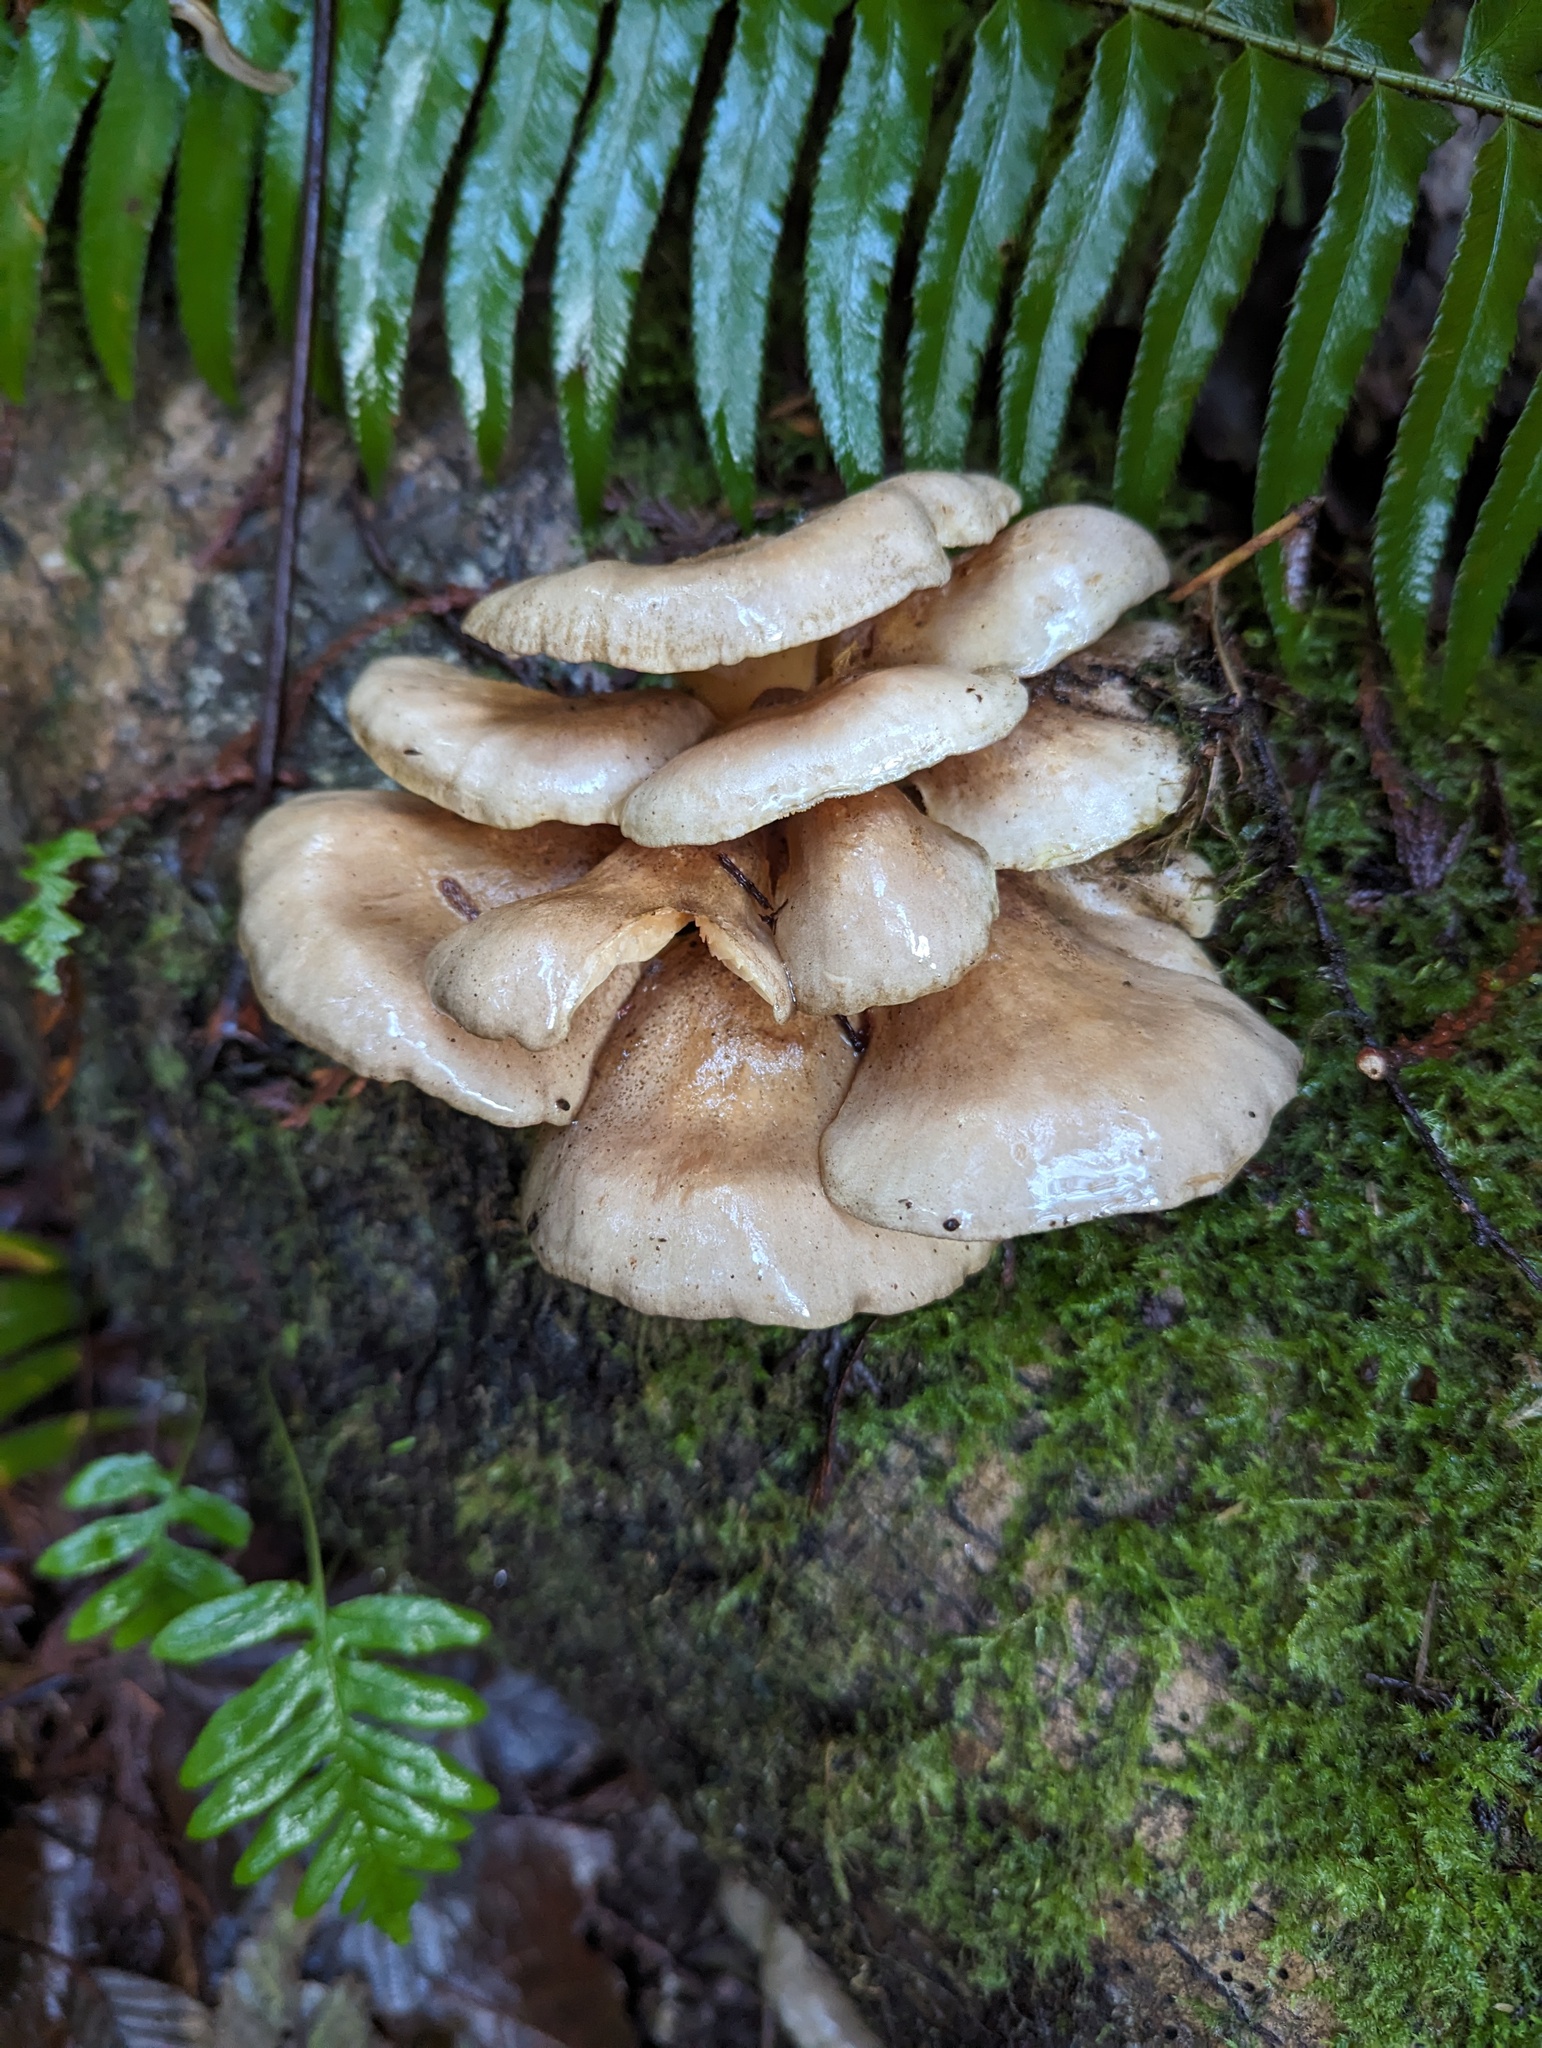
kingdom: Fungi
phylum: Basidiomycota
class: Agaricomycetes
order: Agaricales
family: Sarcomyxaceae
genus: Sarcomyxa
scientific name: Sarcomyxa serotina
